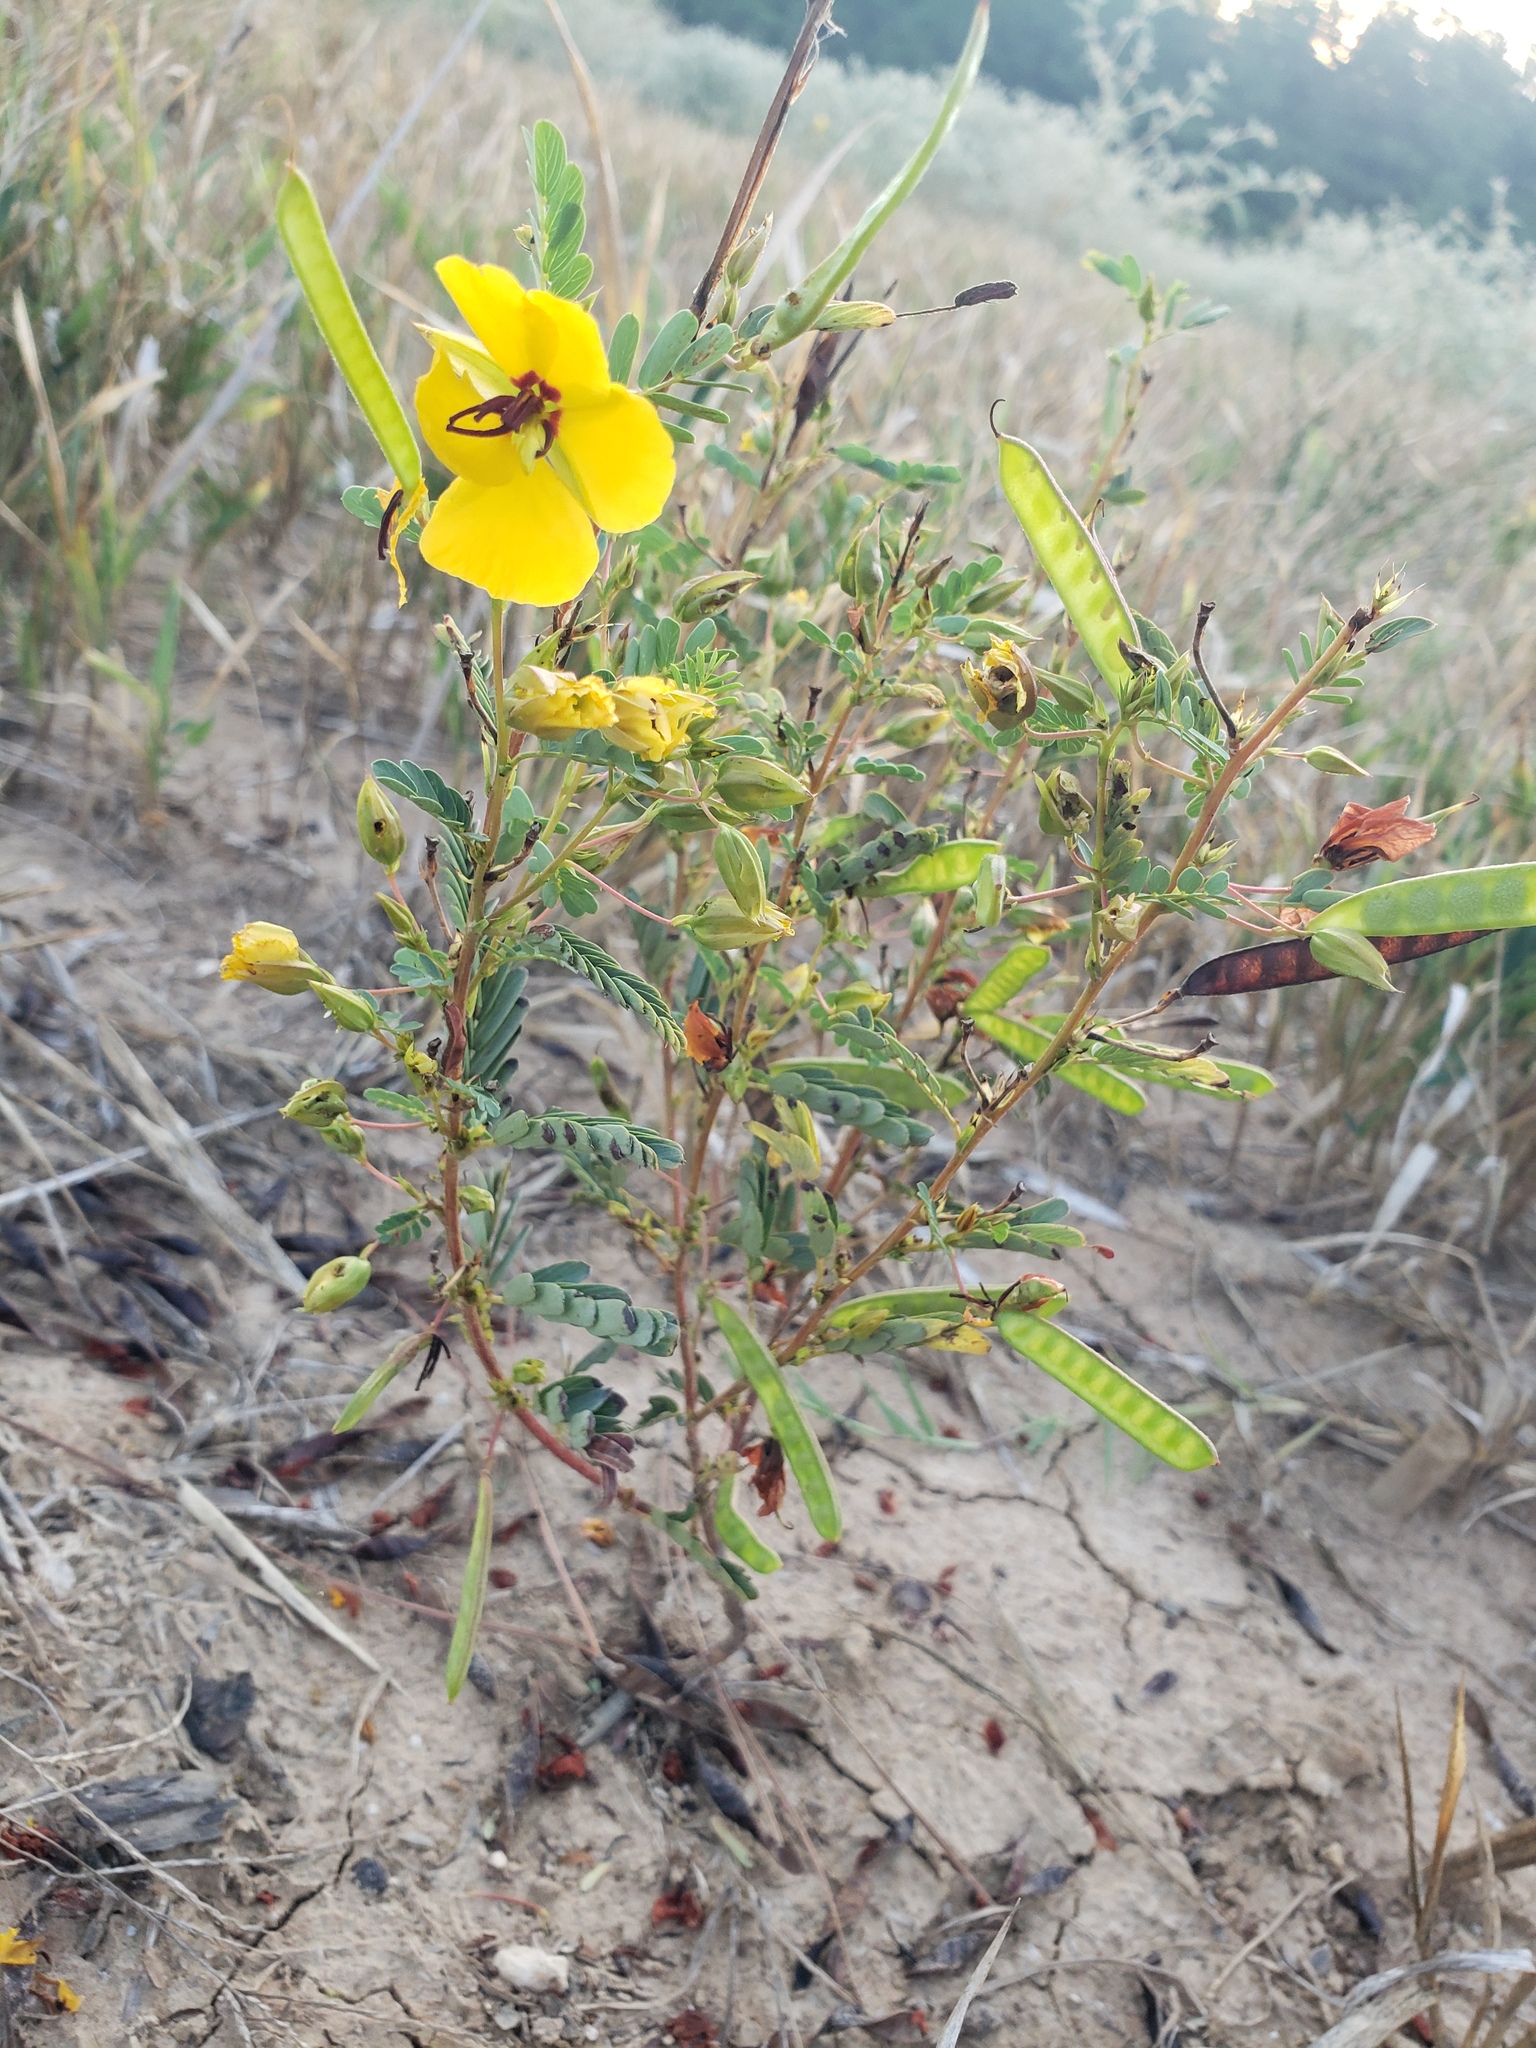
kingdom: Plantae
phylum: Tracheophyta
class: Magnoliopsida
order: Fabales
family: Fabaceae
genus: Chamaecrista
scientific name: Chamaecrista fasciculata
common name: Golden cassia
